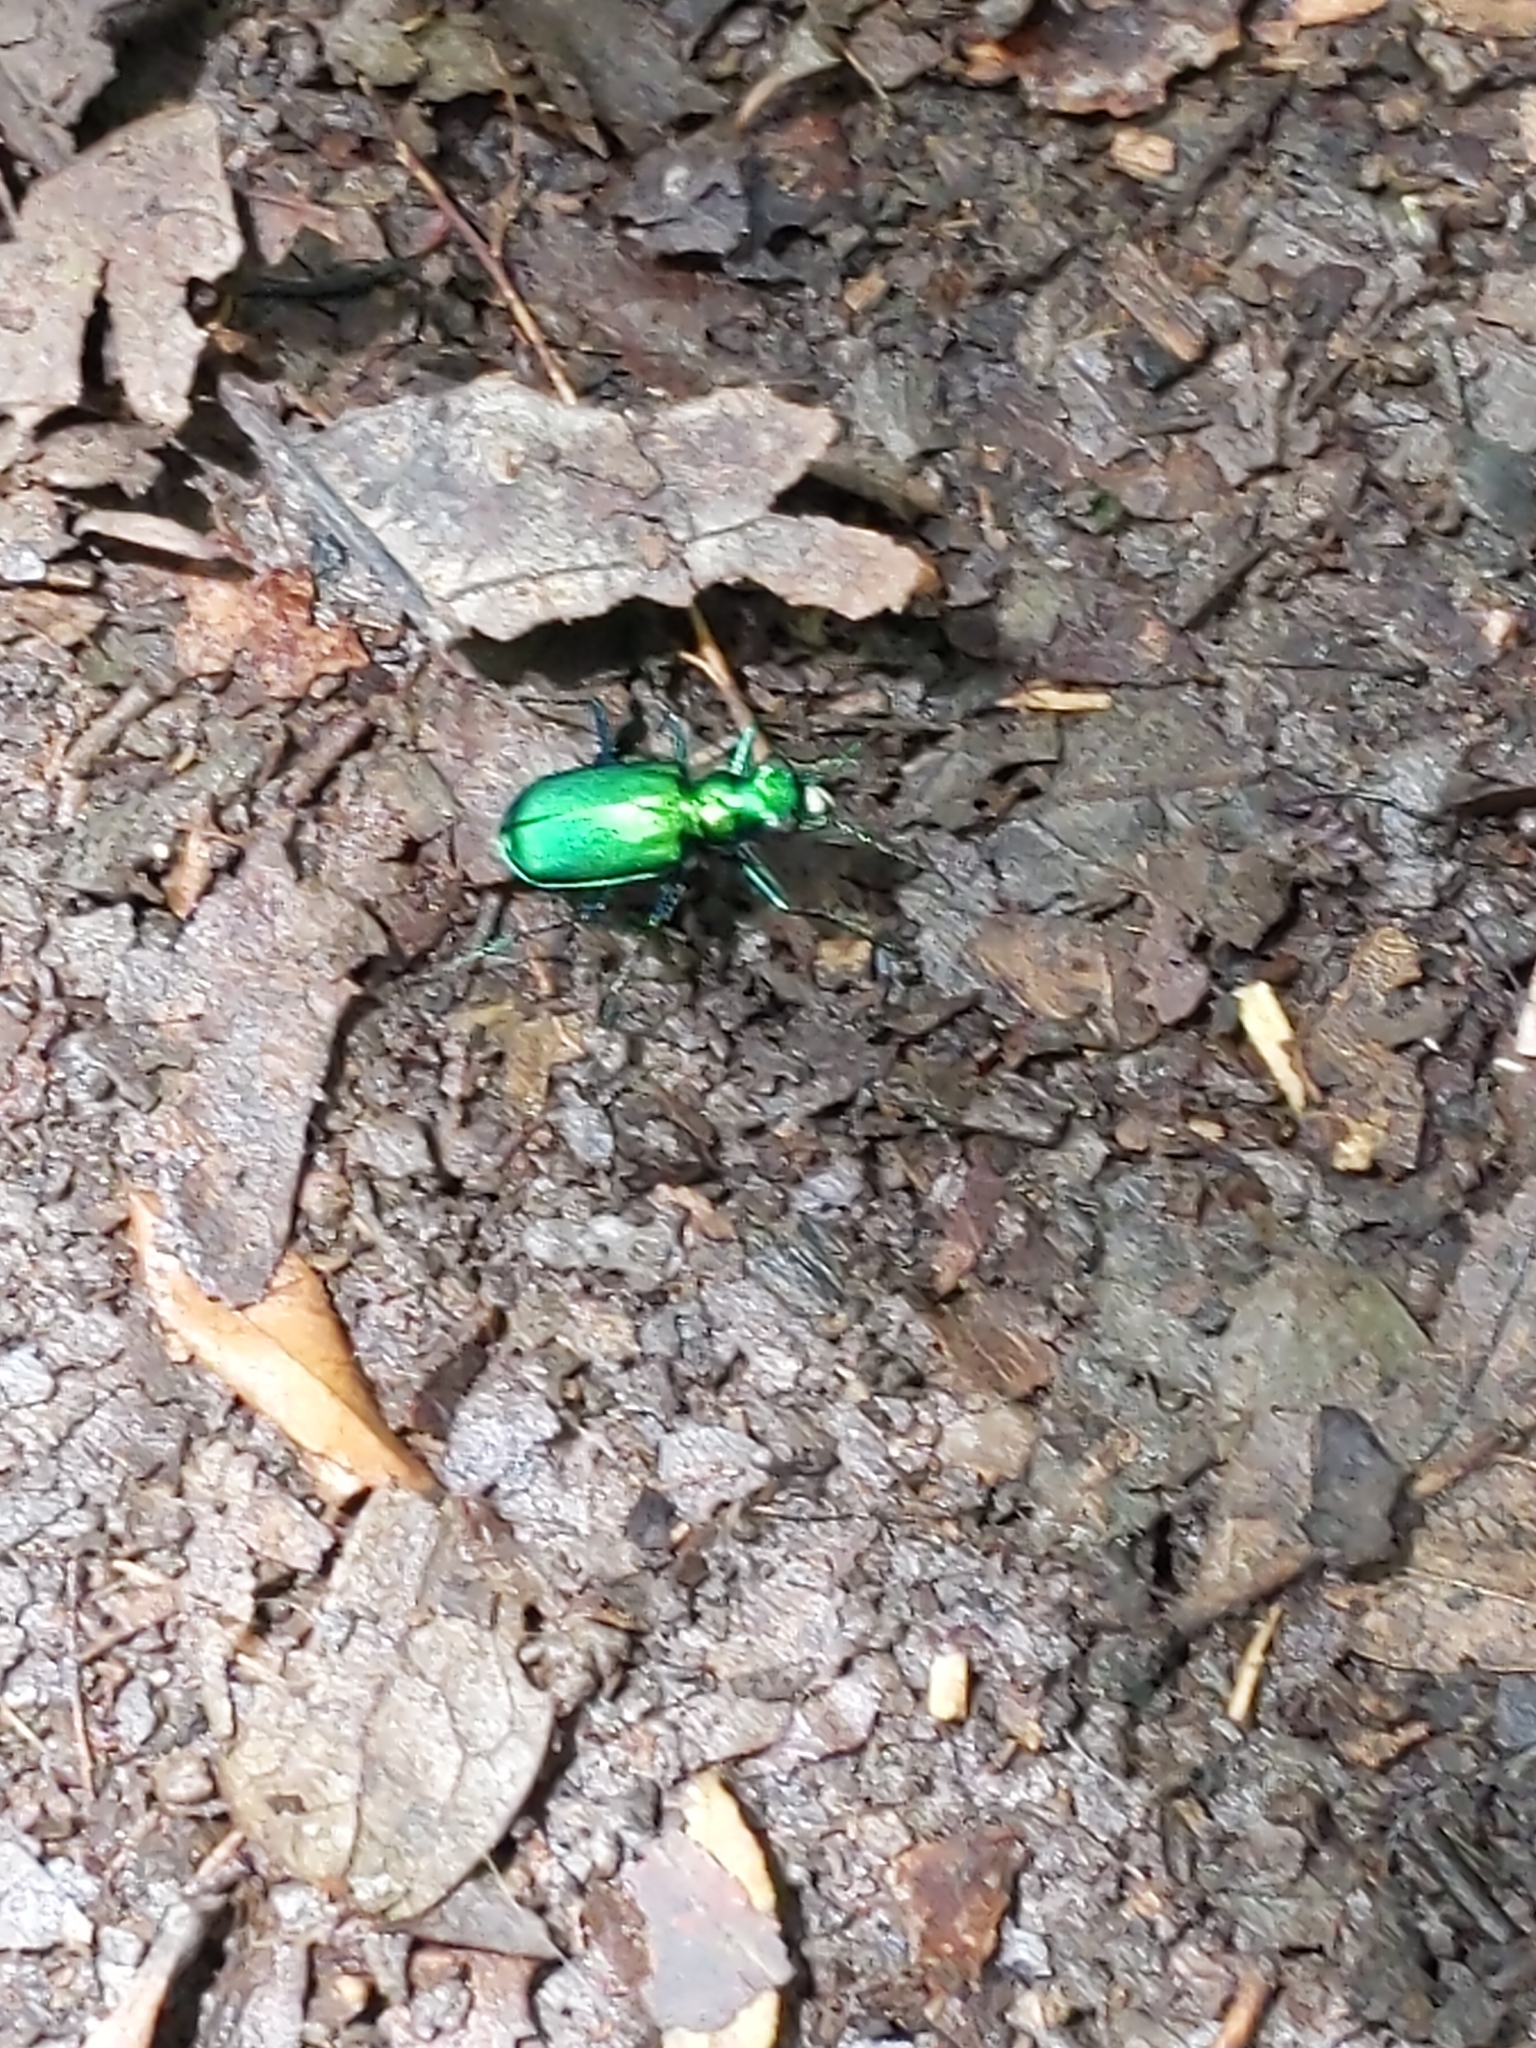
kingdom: Animalia
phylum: Arthropoda
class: Insecta
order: Coleoptera
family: Carabidae
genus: Cicindela
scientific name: Cicindela sexguttata
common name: Six-spotted tiger beetle
